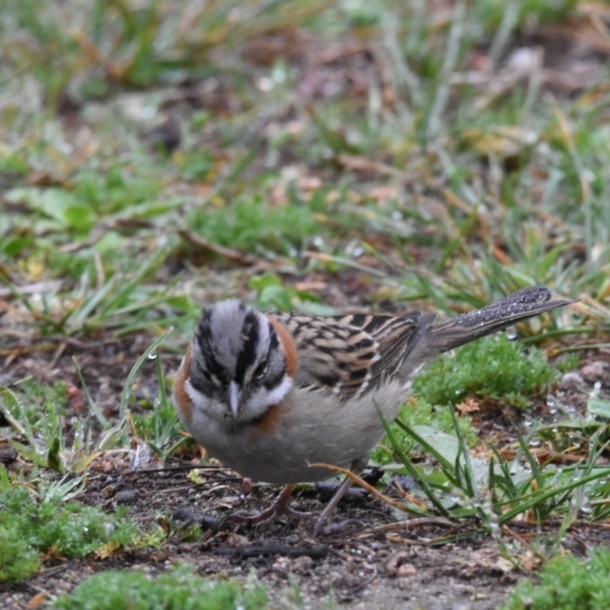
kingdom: Animalia
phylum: Chordata
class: Aves
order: Passeriformes
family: Passerellidae
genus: Zonotrichia
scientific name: Zonotrichia capensis
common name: Rufous-collared sparrow
